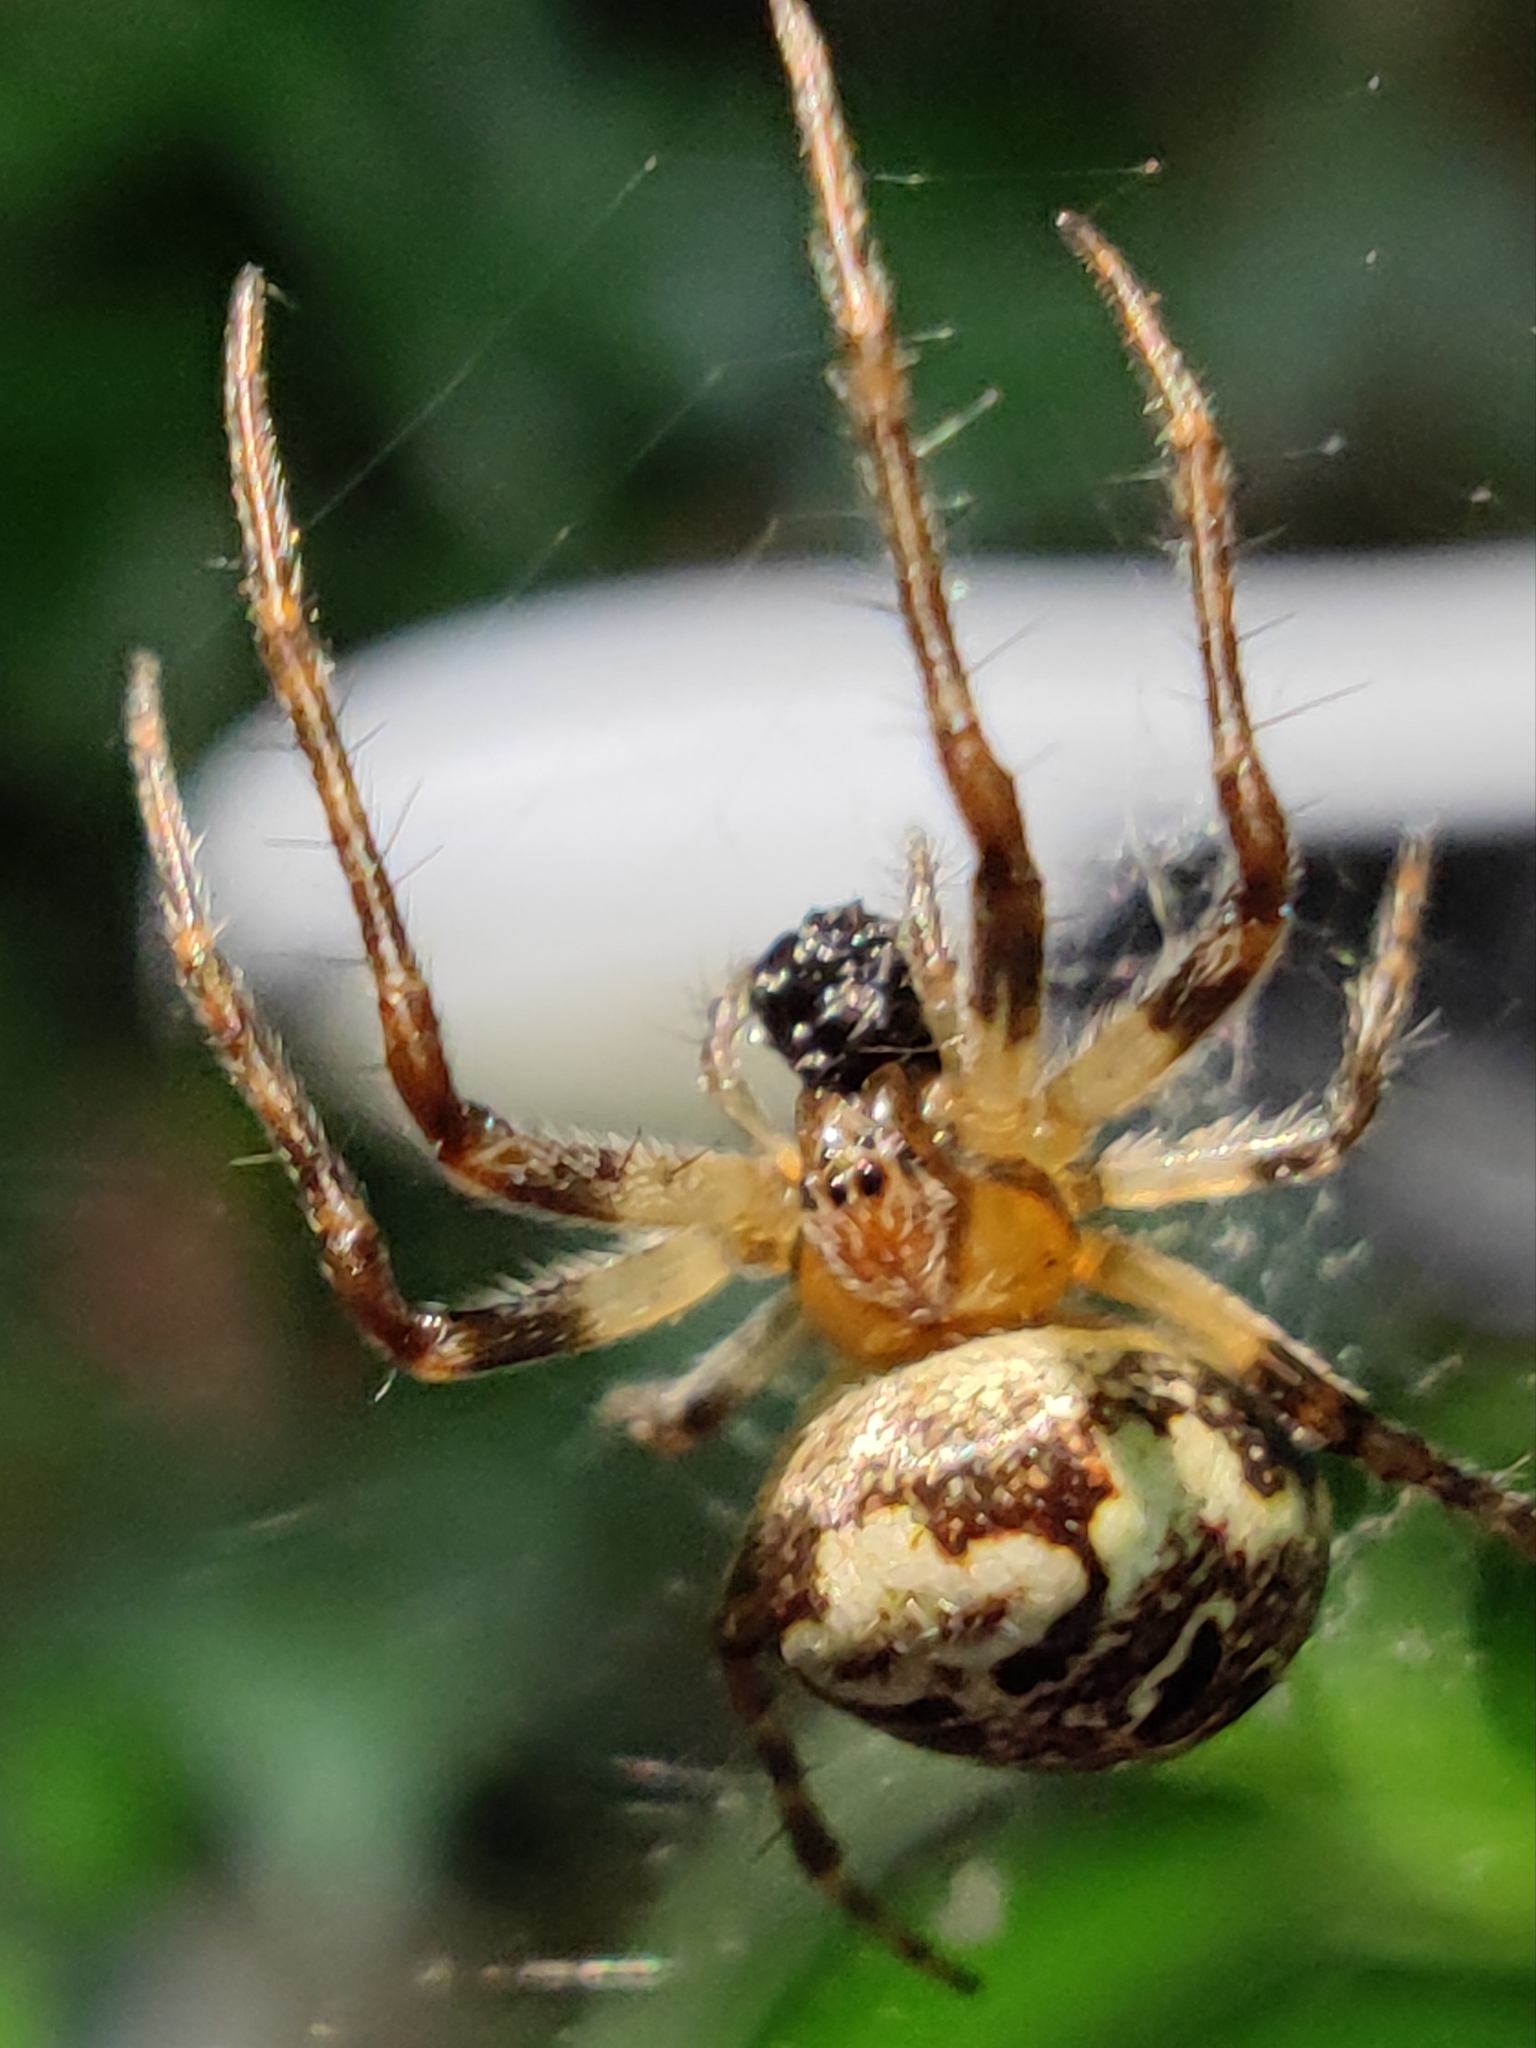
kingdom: Animalia
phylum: Arthropoda
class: Arachnida
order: Araneae
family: Araneidae
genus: Zilla
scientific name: Zilla diodia
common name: Zilla diodia
